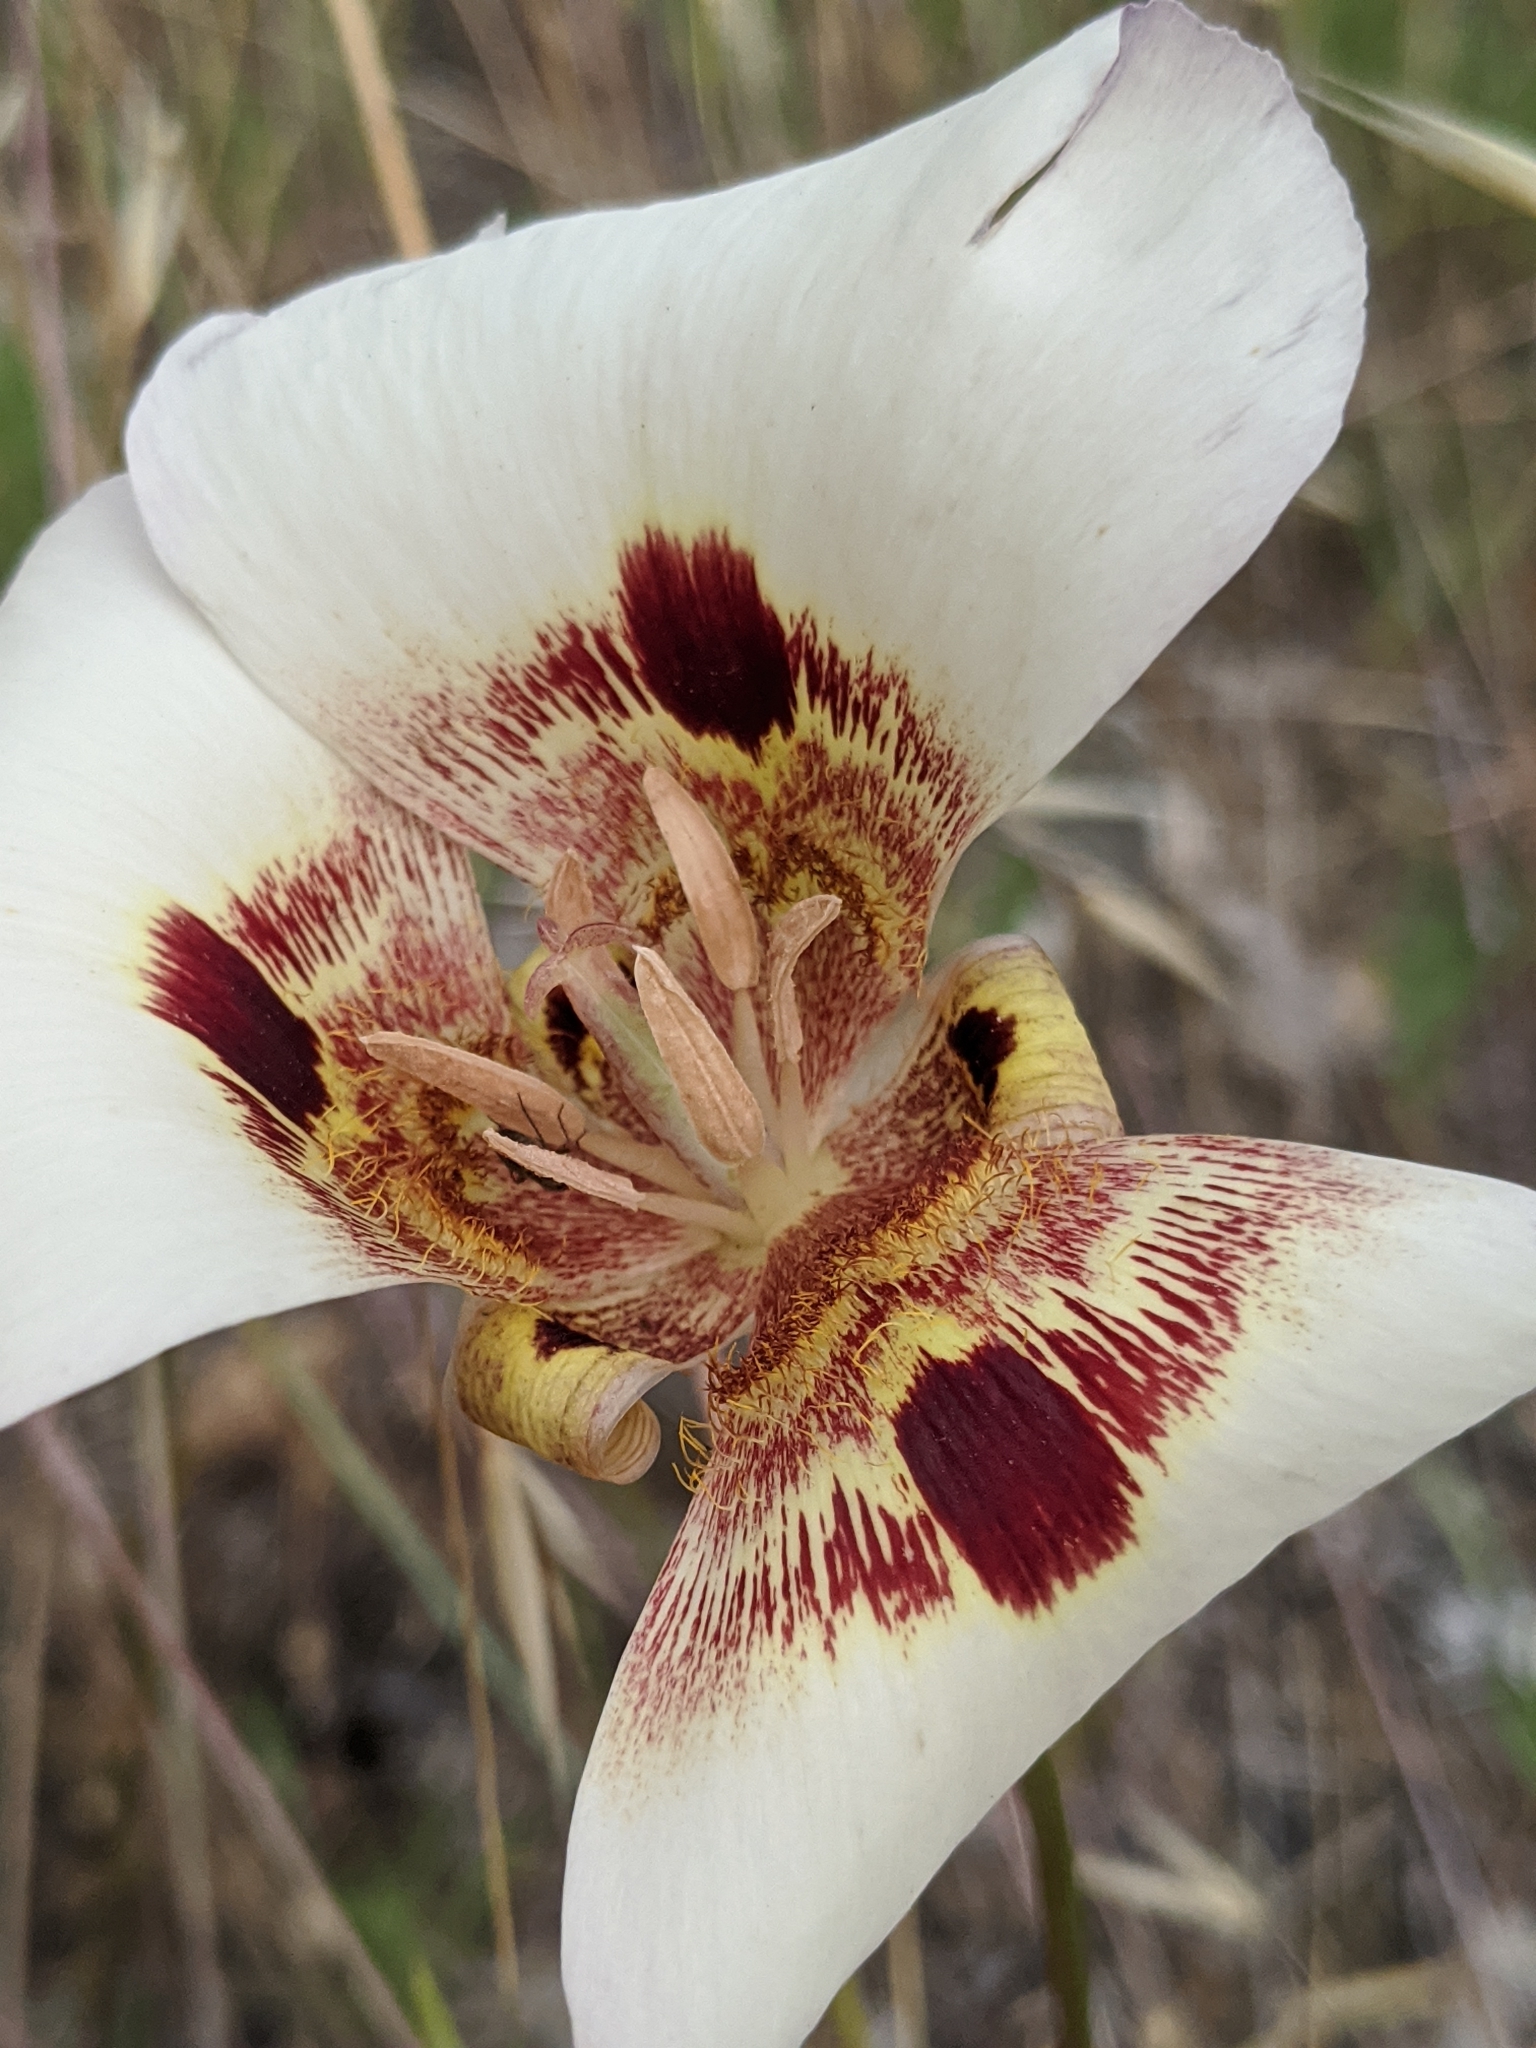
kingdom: Plantae
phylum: Tracheophyta
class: Liliopsida
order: Liliales
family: Liliaceae
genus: Calochortus
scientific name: Calochortus vestae
